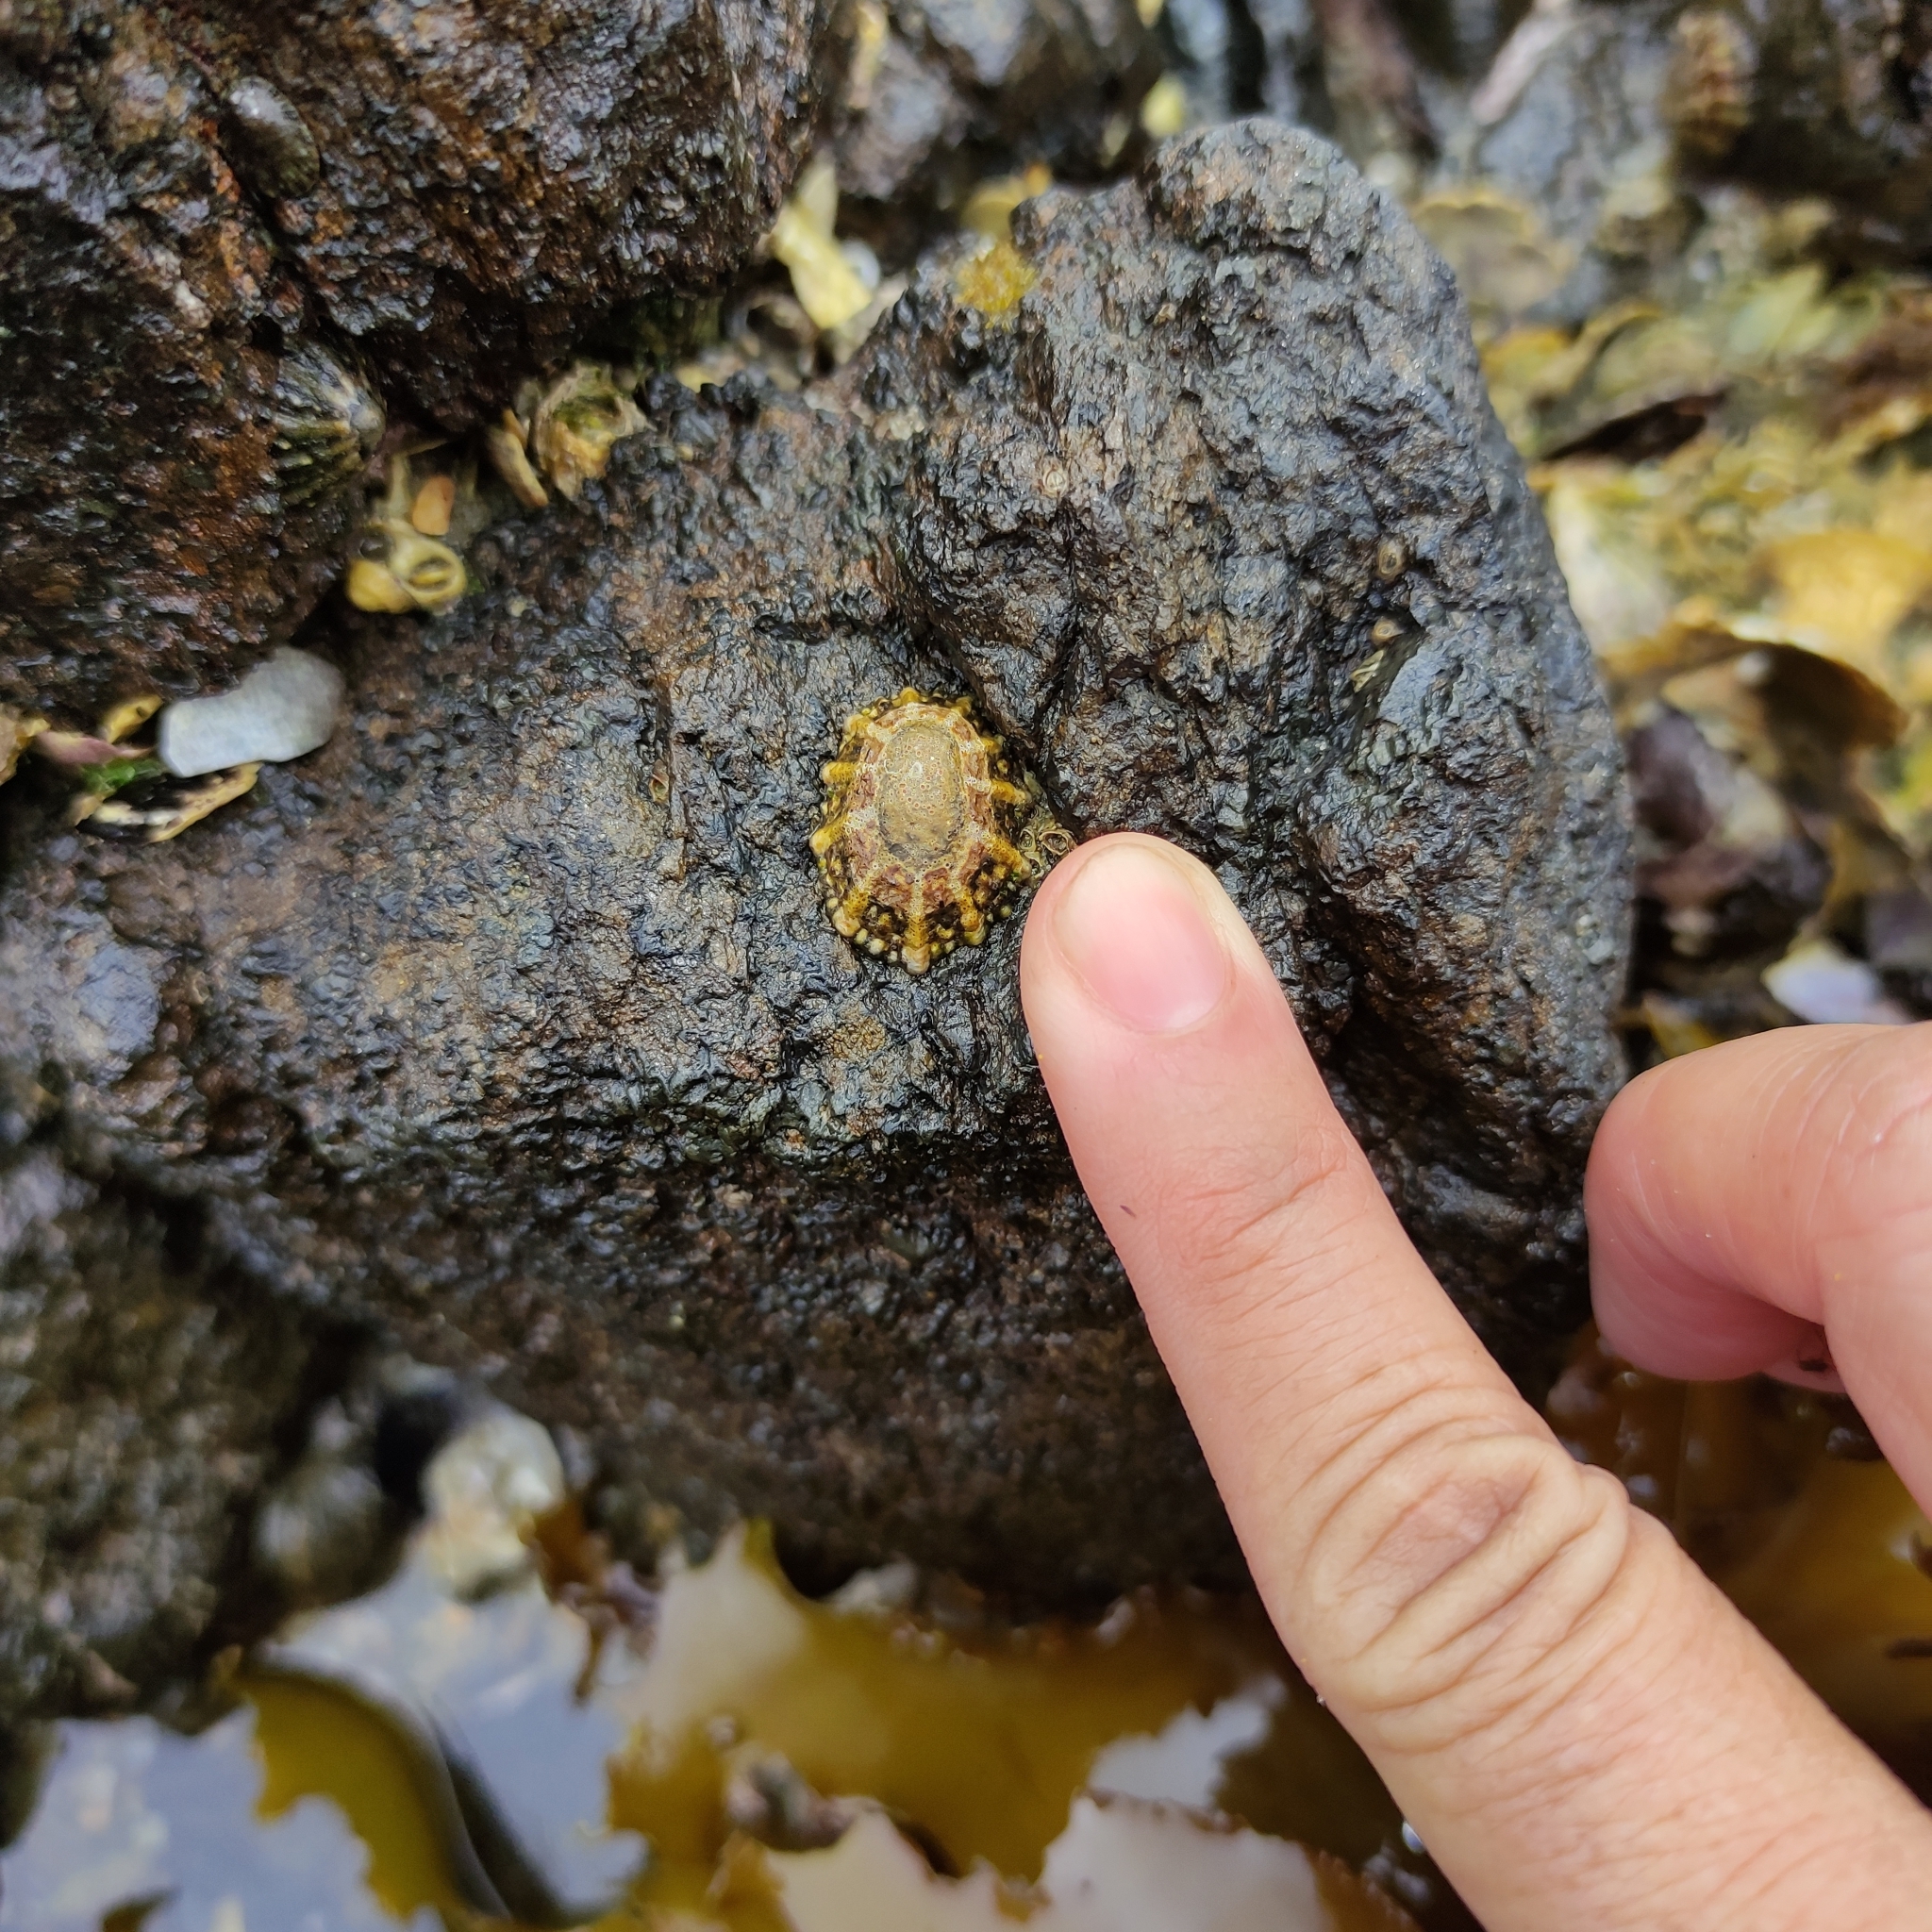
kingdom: Animalia
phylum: Mollusca
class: Gastropoda
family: Nacellidae
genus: Cellana
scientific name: Cellana ornata
